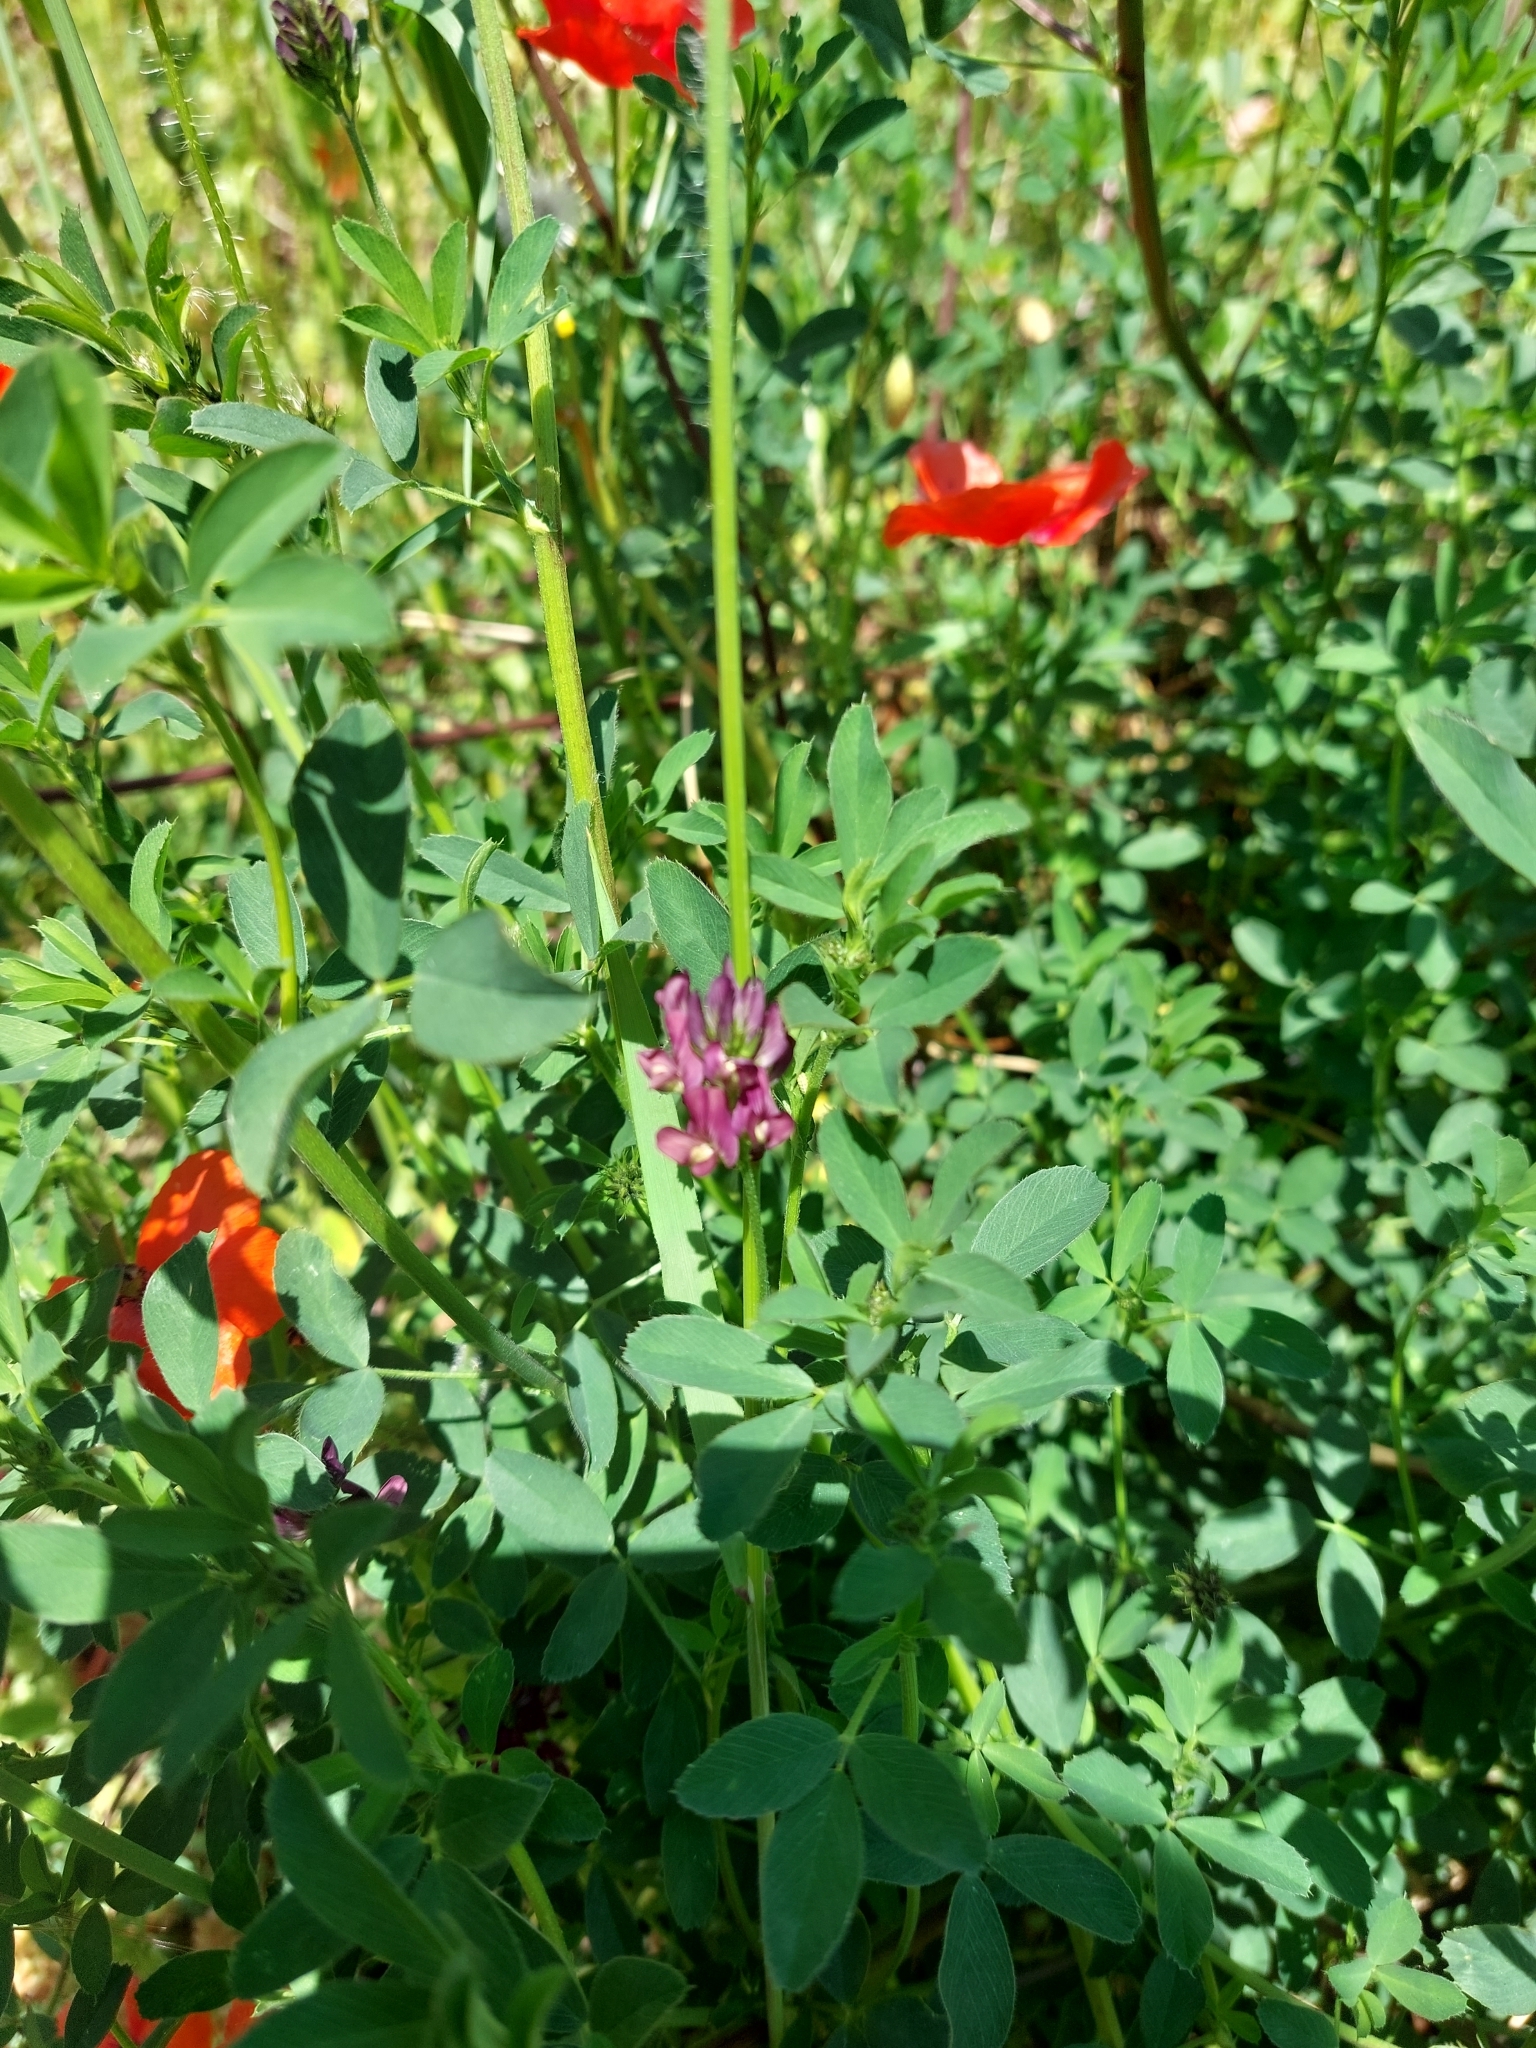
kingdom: Plantae
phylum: Tracheophyta
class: Magnoliopsida
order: Fabales
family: Fabaceae
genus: Medicago
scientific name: Medicago sativa
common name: Alfalfa
